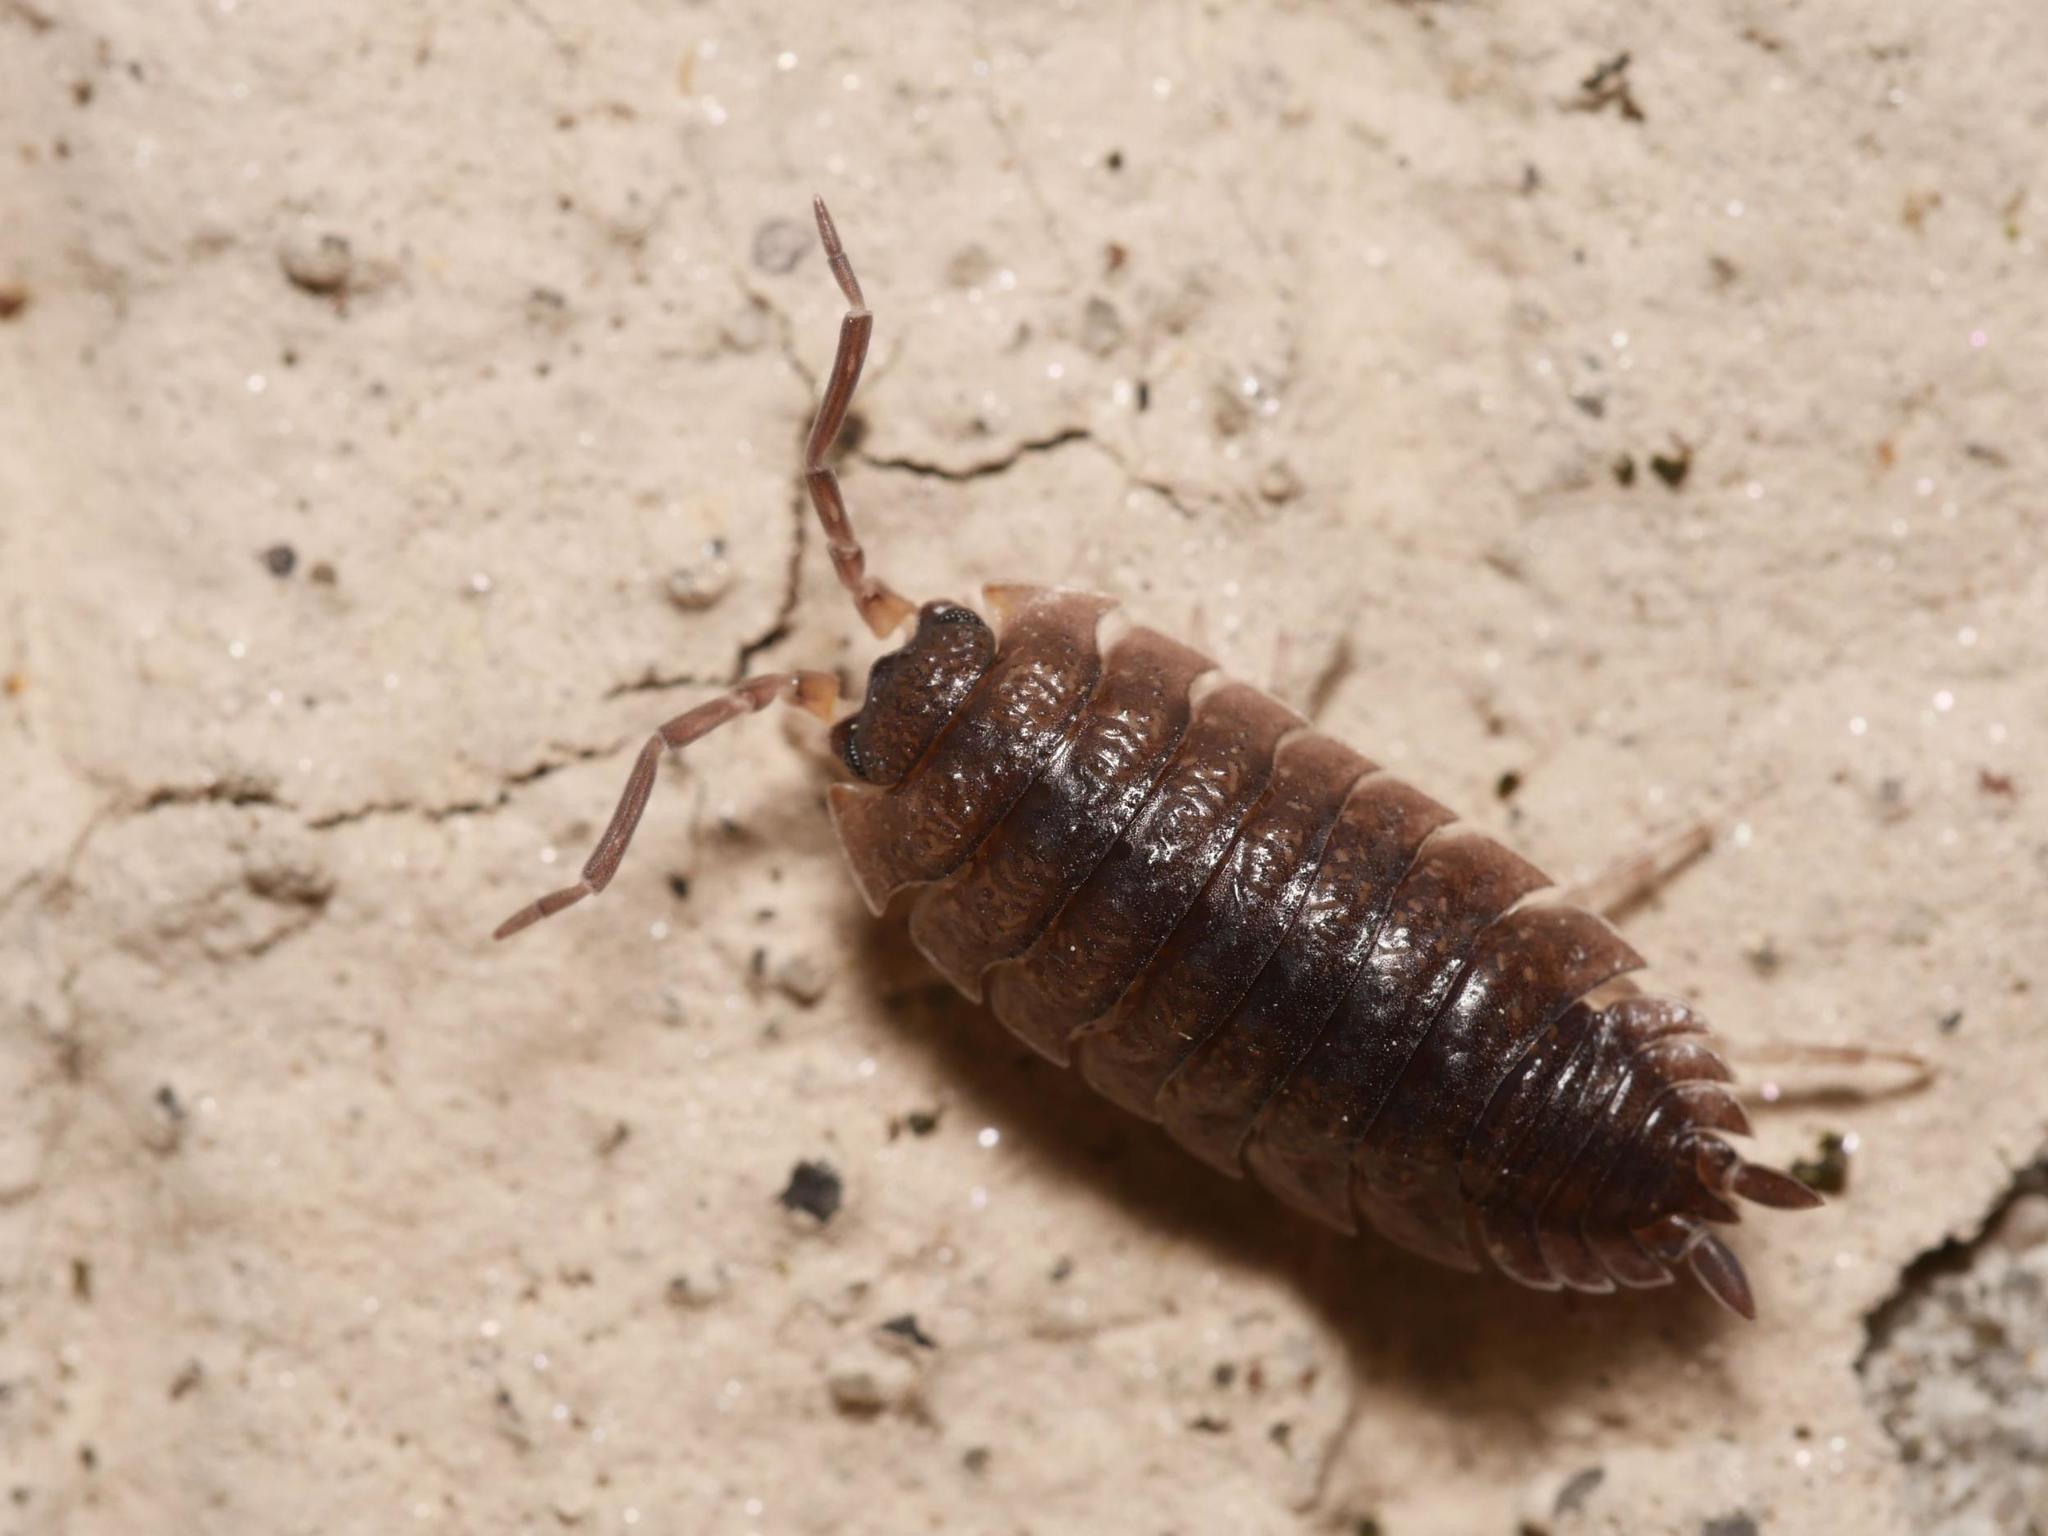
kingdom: Animalia
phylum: Arthropoda
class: Malacostraca
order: Isopoda
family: Porcellionidae
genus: Porcellio
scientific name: Porcellio scaber
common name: Common rough woodlouse
